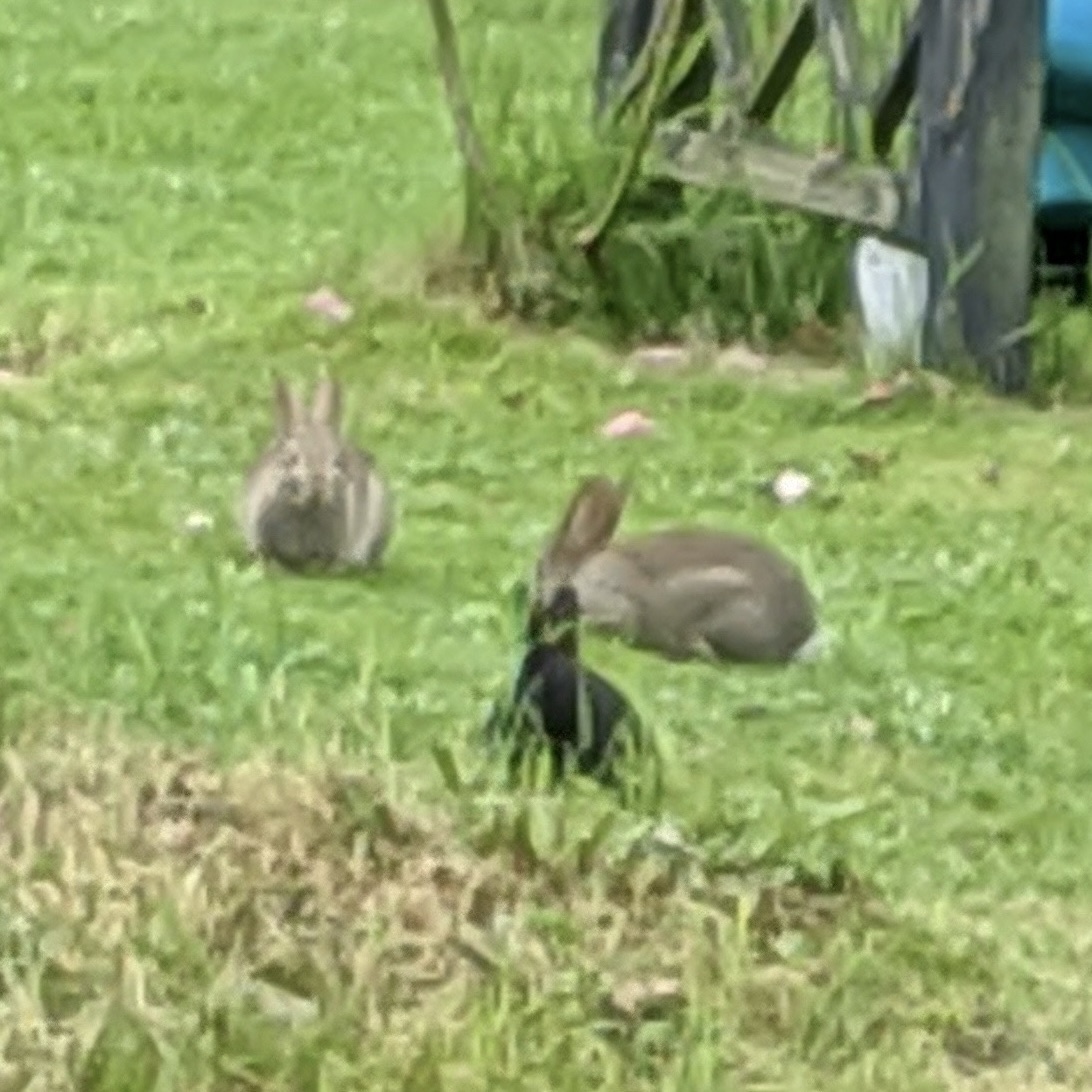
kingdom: Animalia
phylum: Chordata
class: Mammalia
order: Lagomorpha
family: Leporidae
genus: Oryctolagus
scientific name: Oryctolagus cuniculus
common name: European rabbit
